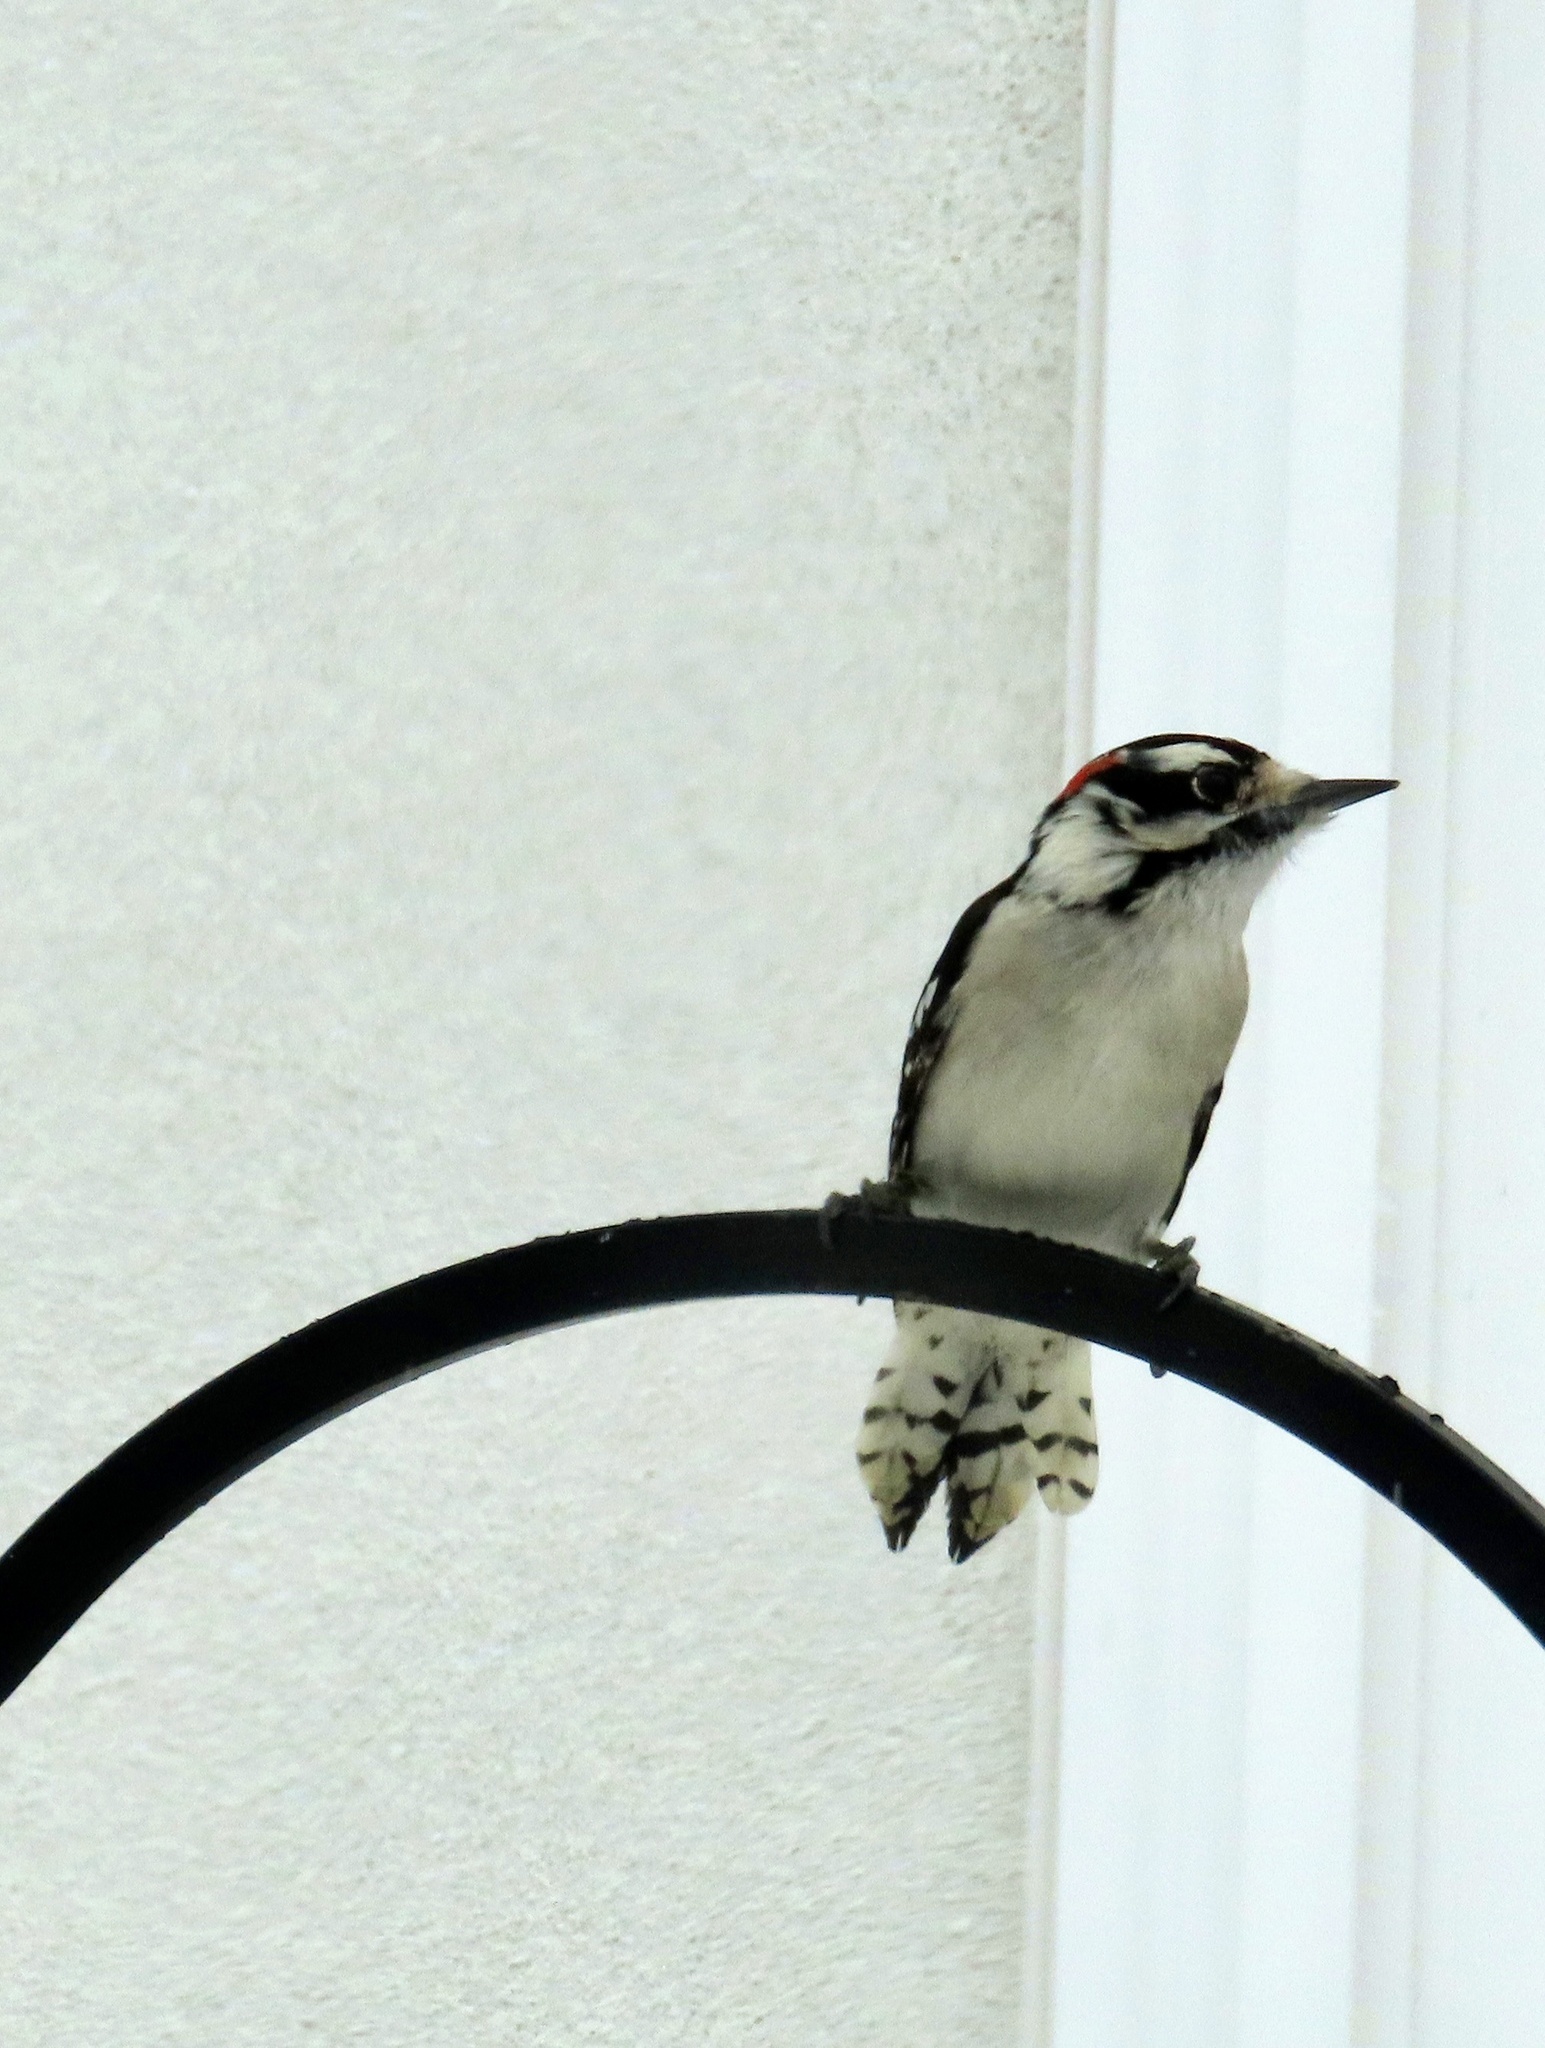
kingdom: Animalia
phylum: Chordata
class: Aves
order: Piciformes
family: Picidae
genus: Dryobates
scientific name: Dryobates pubescens
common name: Downy woodpecker
